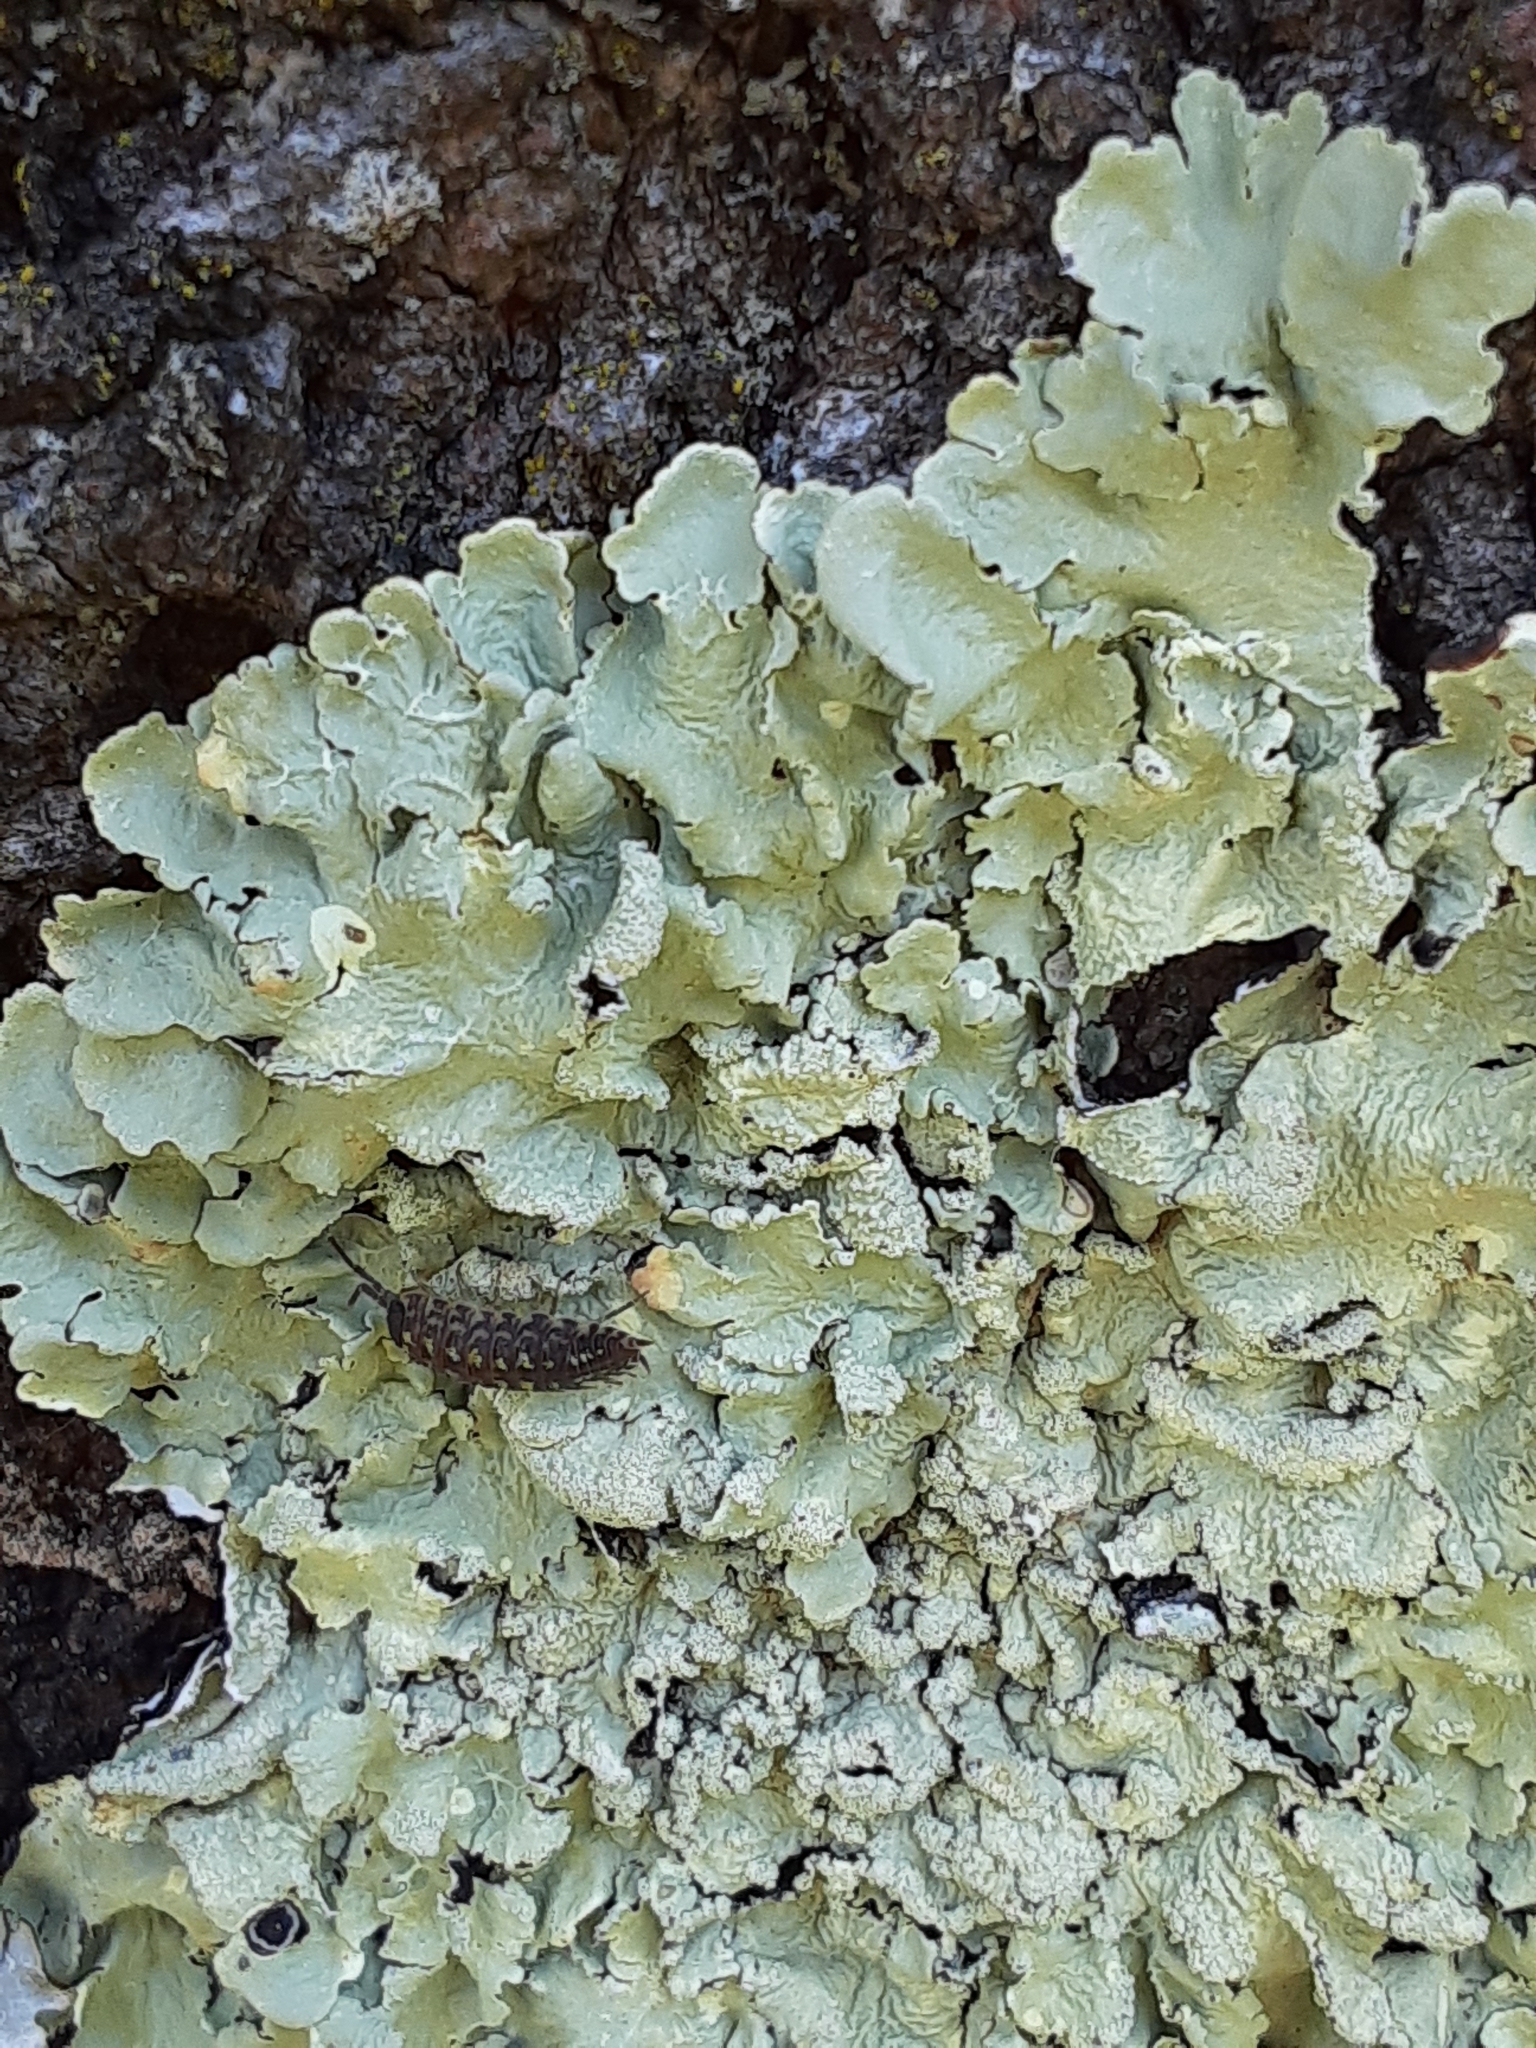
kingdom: Animalia
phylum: Arthropoda
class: Malacostraca
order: Isopoda
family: Porcellionidae
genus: Porcellio
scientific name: Porcellio spinicornis
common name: Painted woodlouse
